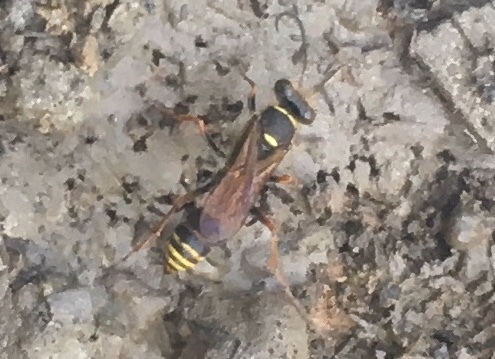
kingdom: Animalia
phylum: Arthropoda
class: Insecta
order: Hymenoptera
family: Sphecidae
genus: Sceliphron
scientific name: Sceliphron curvatum
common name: Pèlopèe
